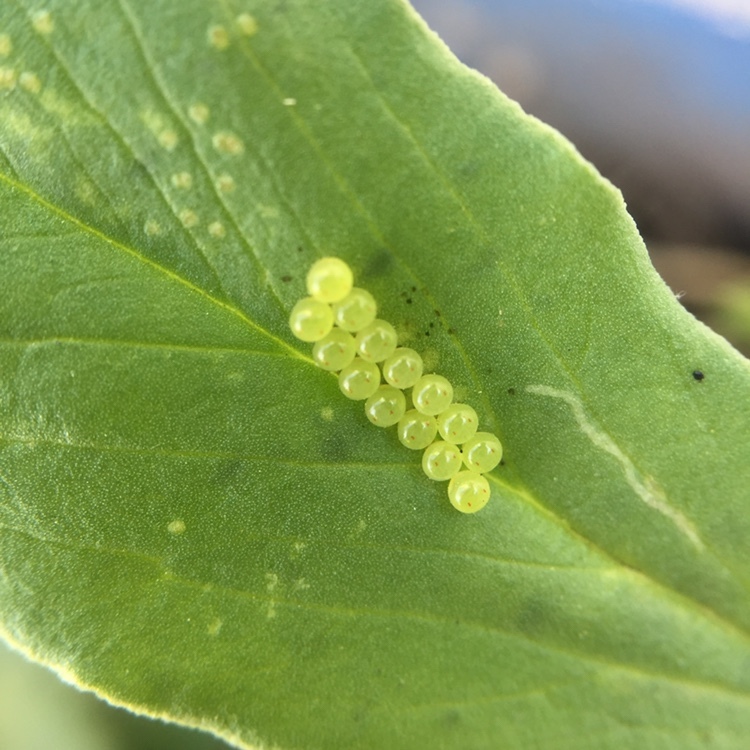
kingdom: Animalia
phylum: Arthropoda
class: Insecta
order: Hemiptera
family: Pentatomidae
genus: Edessa
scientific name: Edessa meditabunda
